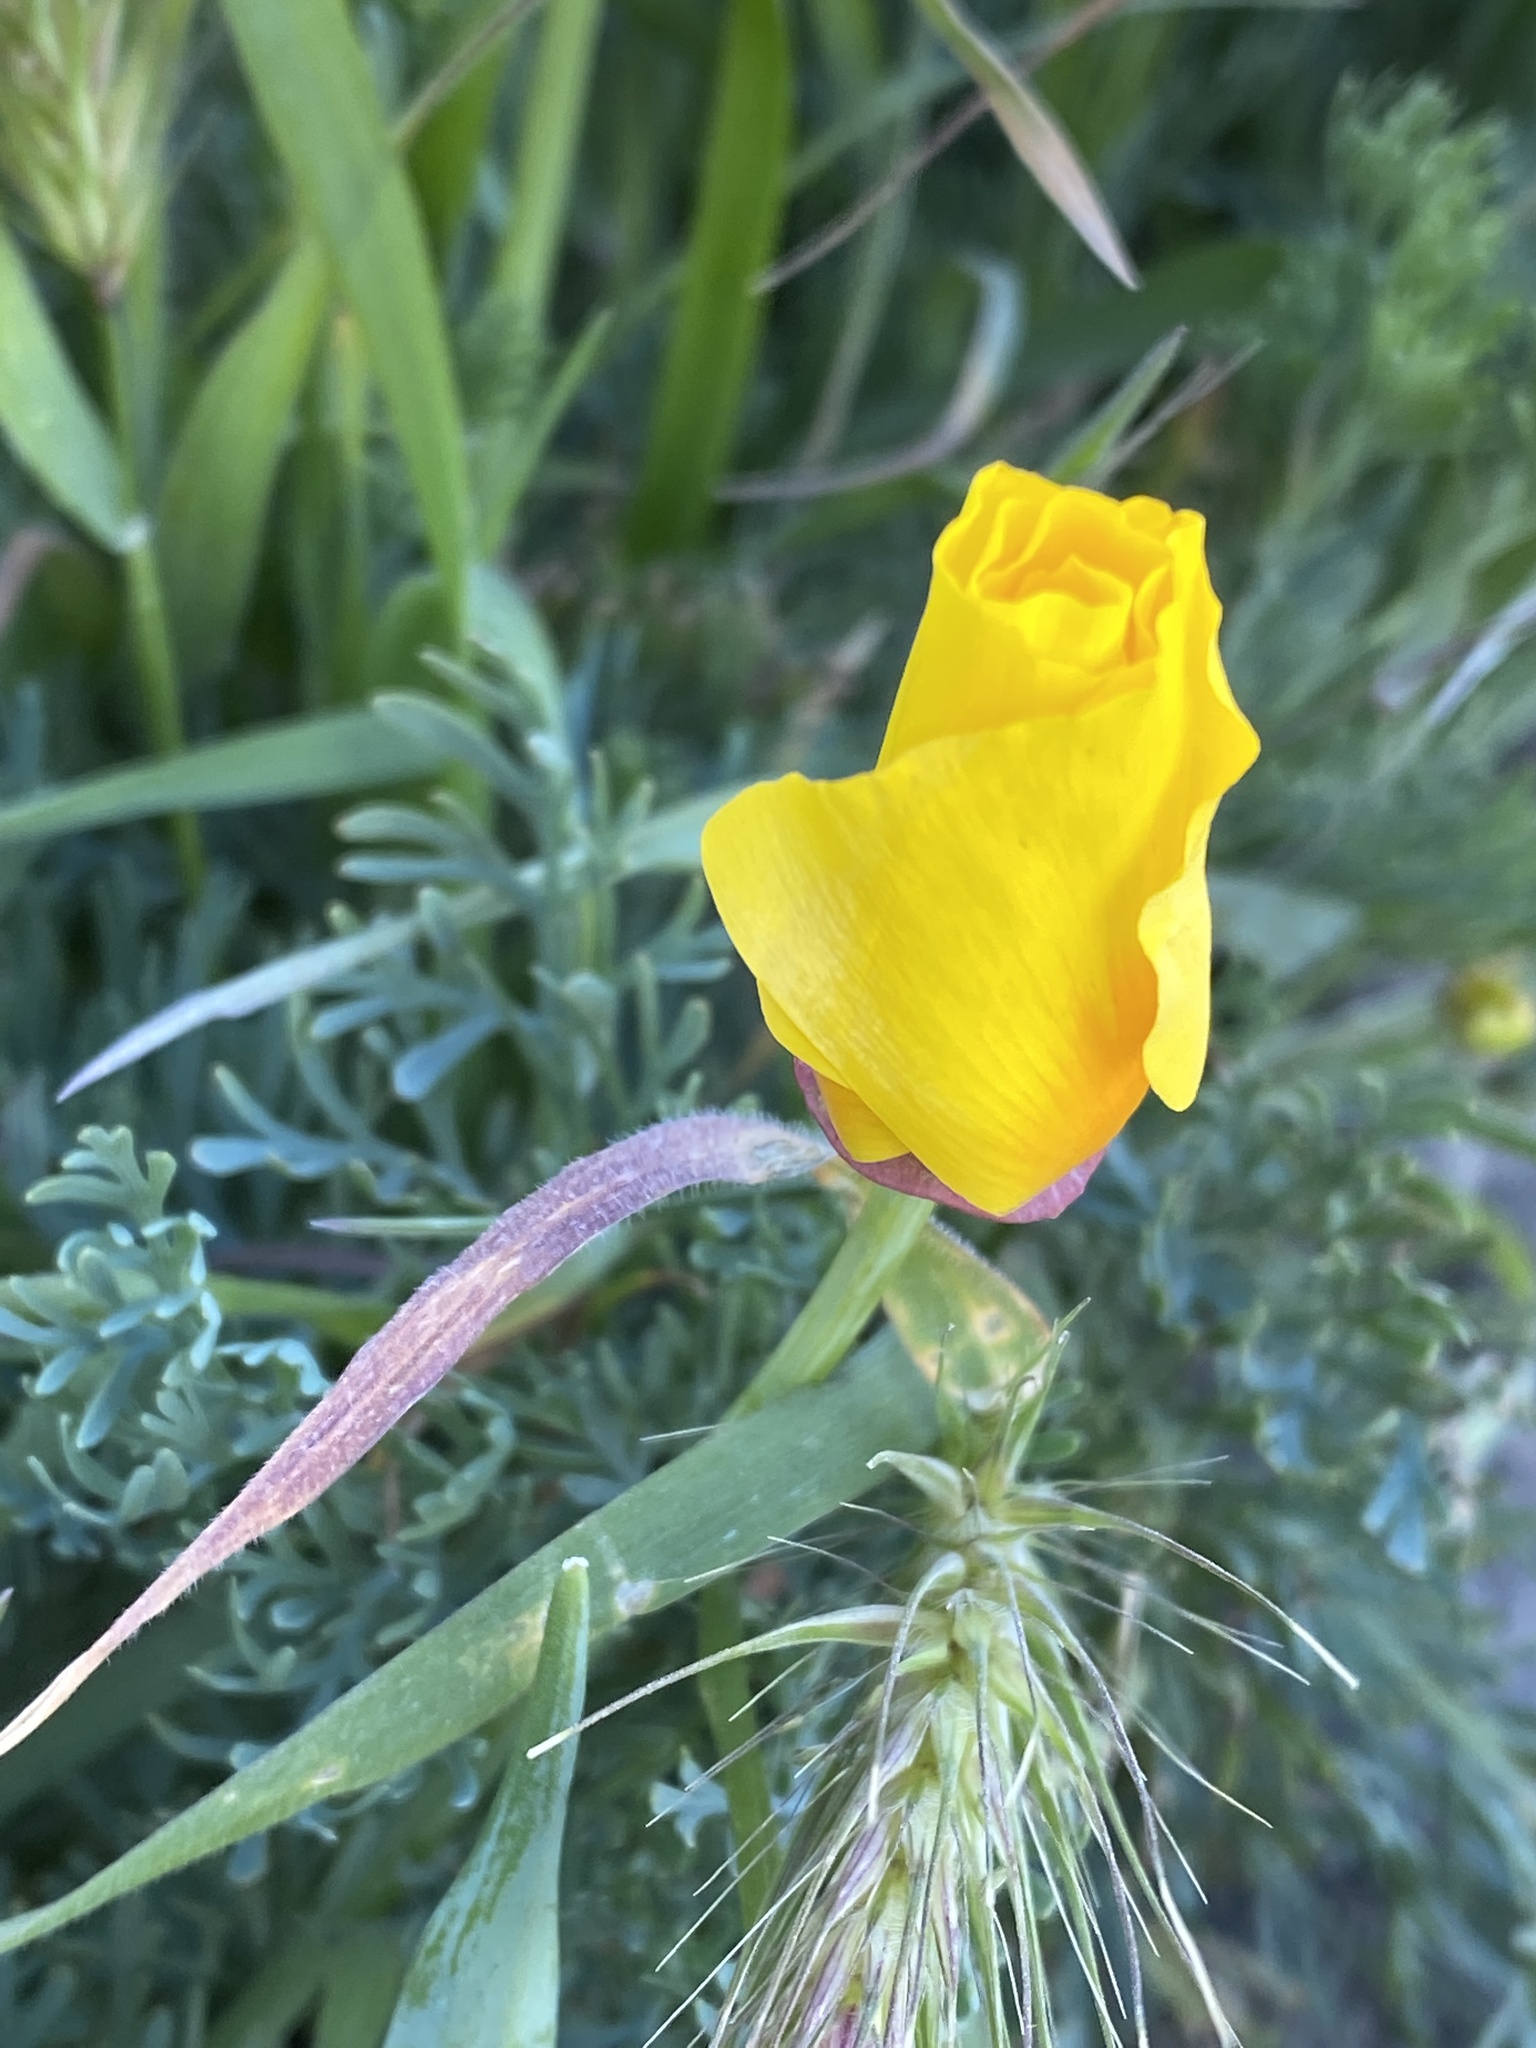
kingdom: Plantae
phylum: Tracheophyta
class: Magnoliopsida
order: Ranunculales
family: Papaveraceae
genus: Eschscholzia
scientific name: Eschscholzia californica
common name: California poppy
